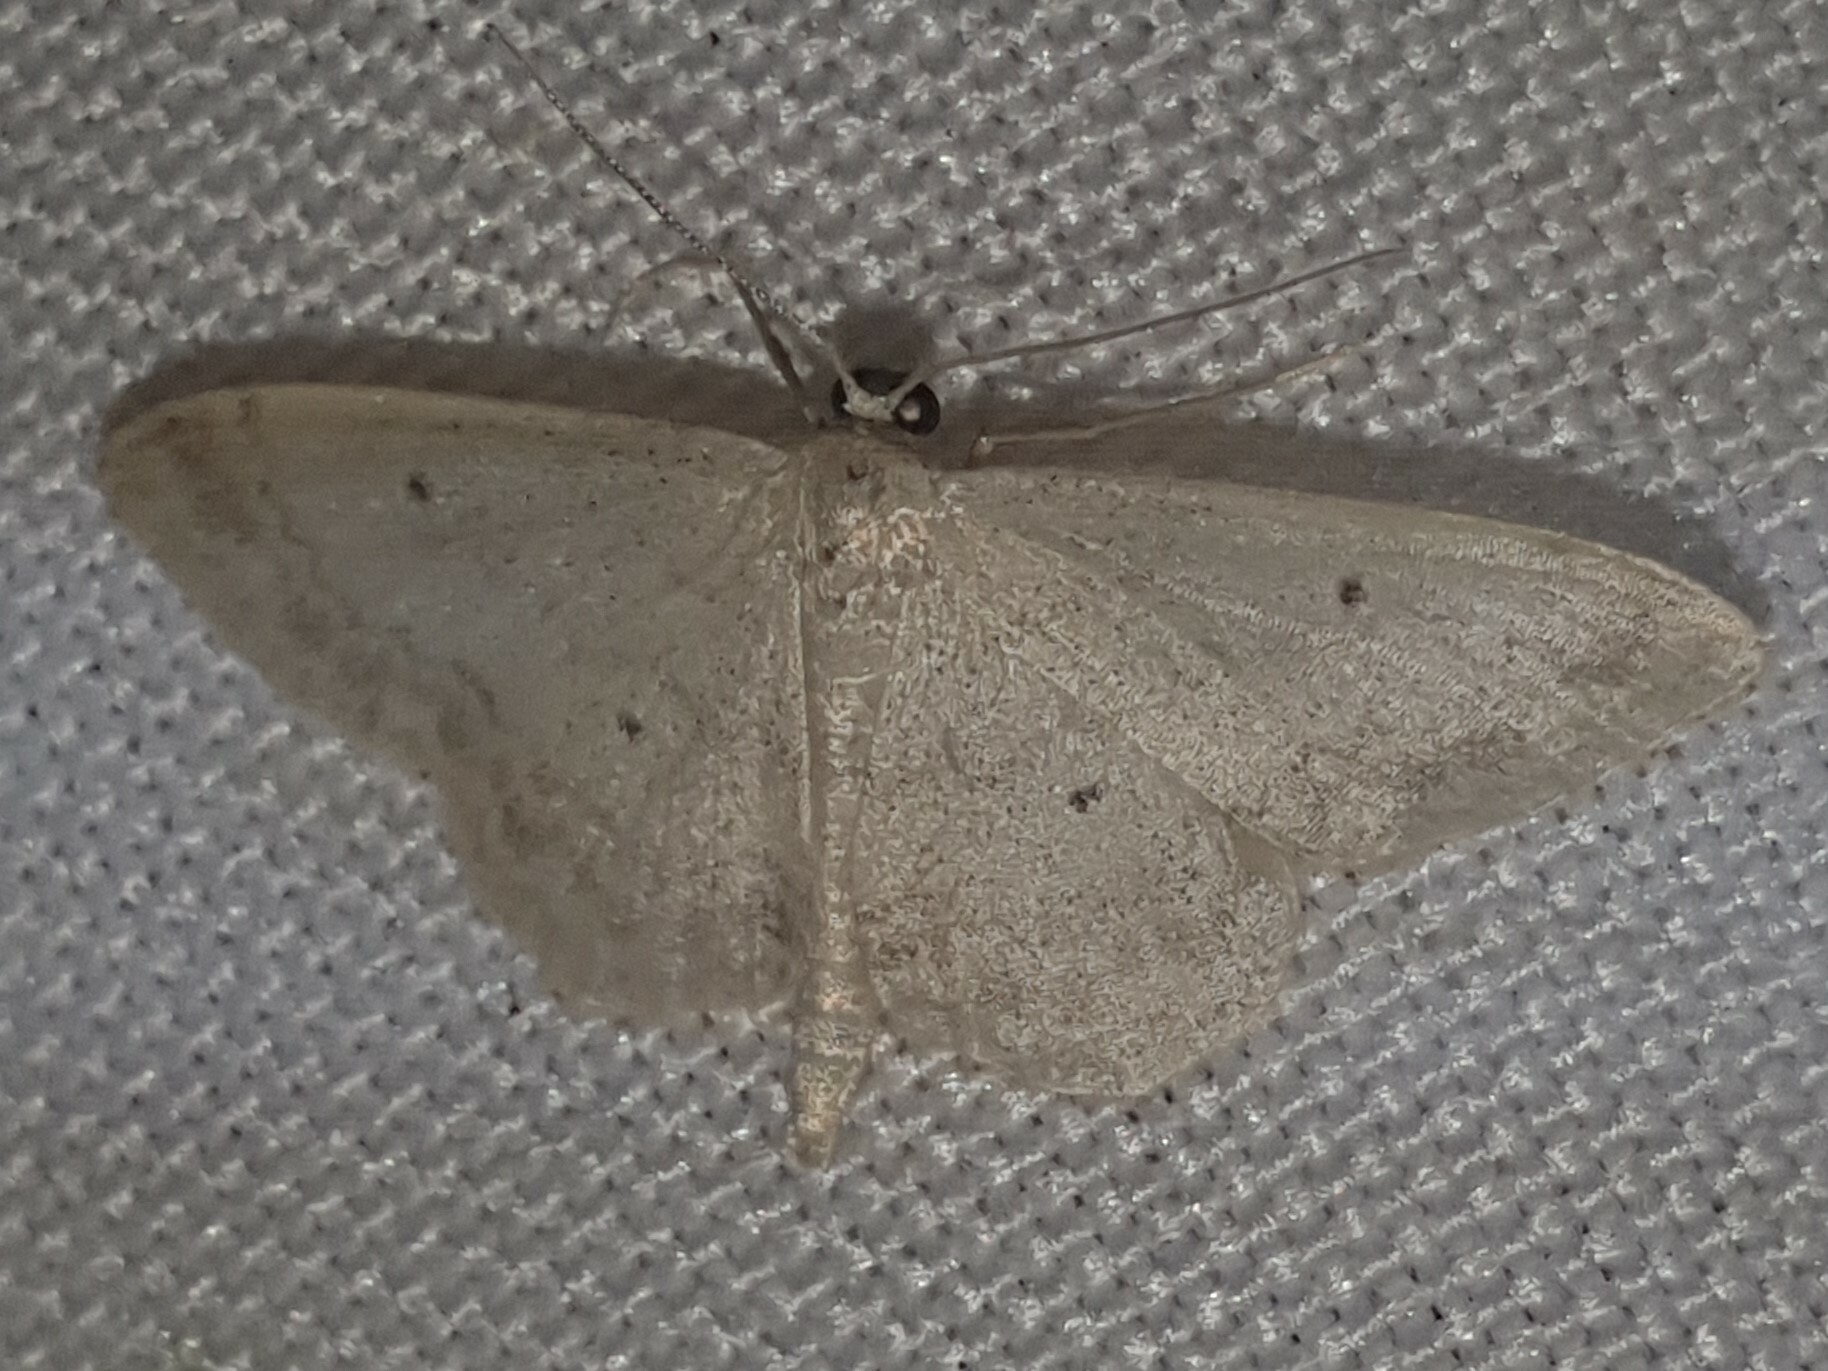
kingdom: Animalia
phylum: Arthropoda
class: Insecta
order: Lepidoptera
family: Geometridae
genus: Idaea
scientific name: Idaea biselata
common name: Small fan-footed wave
